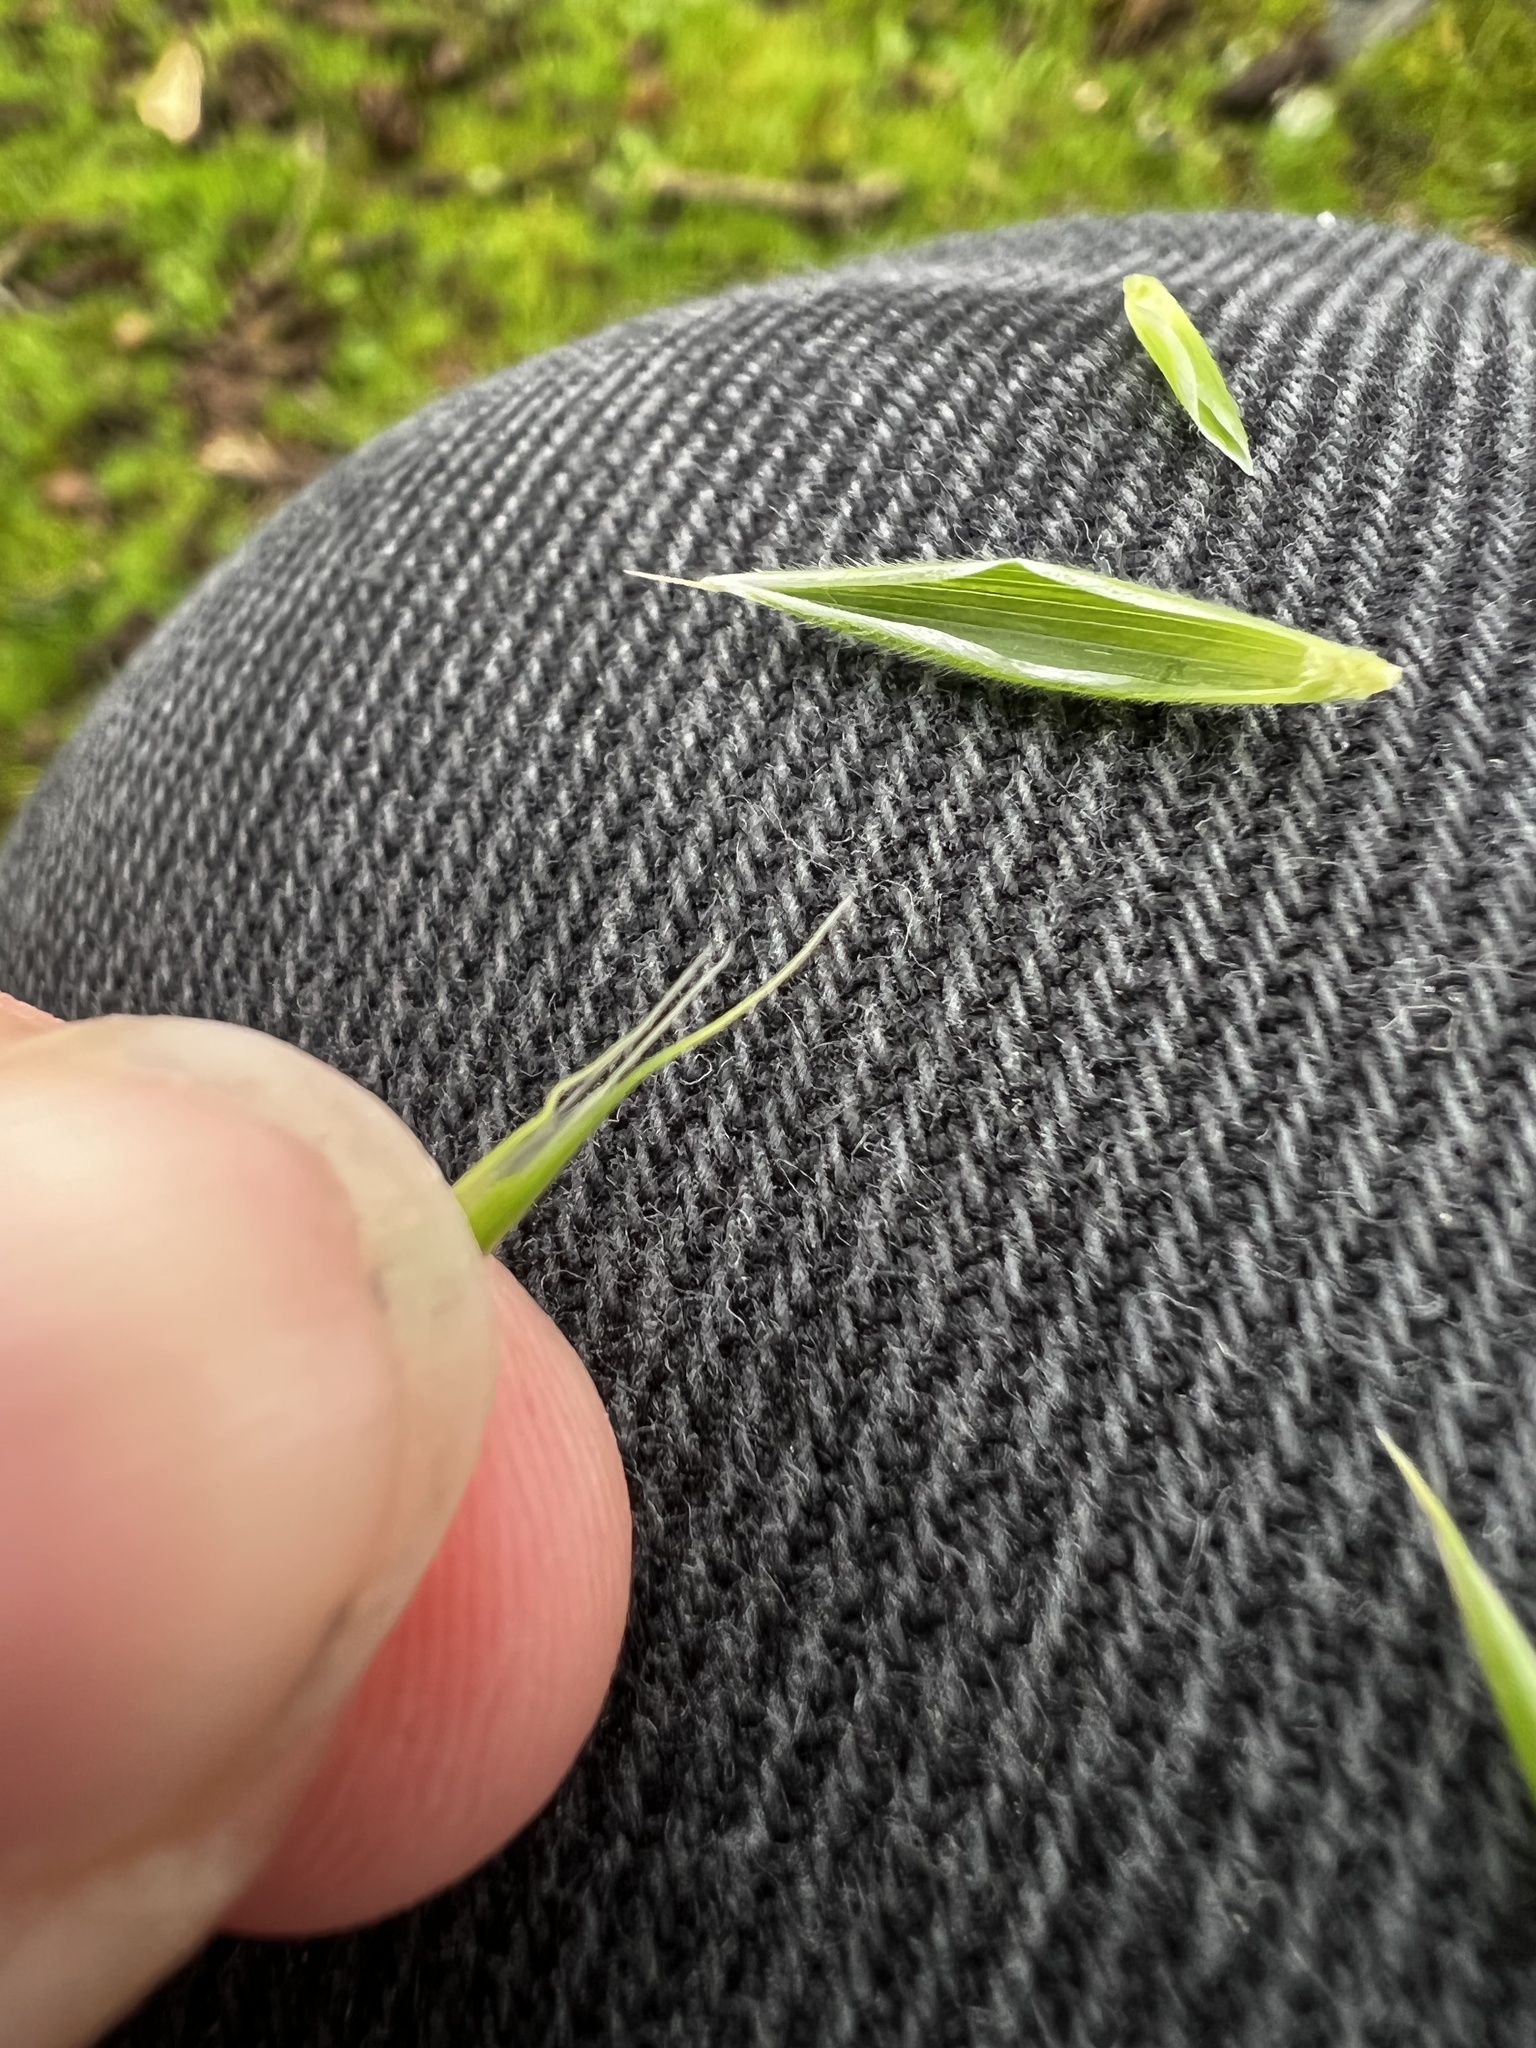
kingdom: Plantae
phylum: Tracheophyta
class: Liliopsida
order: Poales
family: Poaceae
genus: Bromus
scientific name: Bromus hordeaceus
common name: Soft brome
